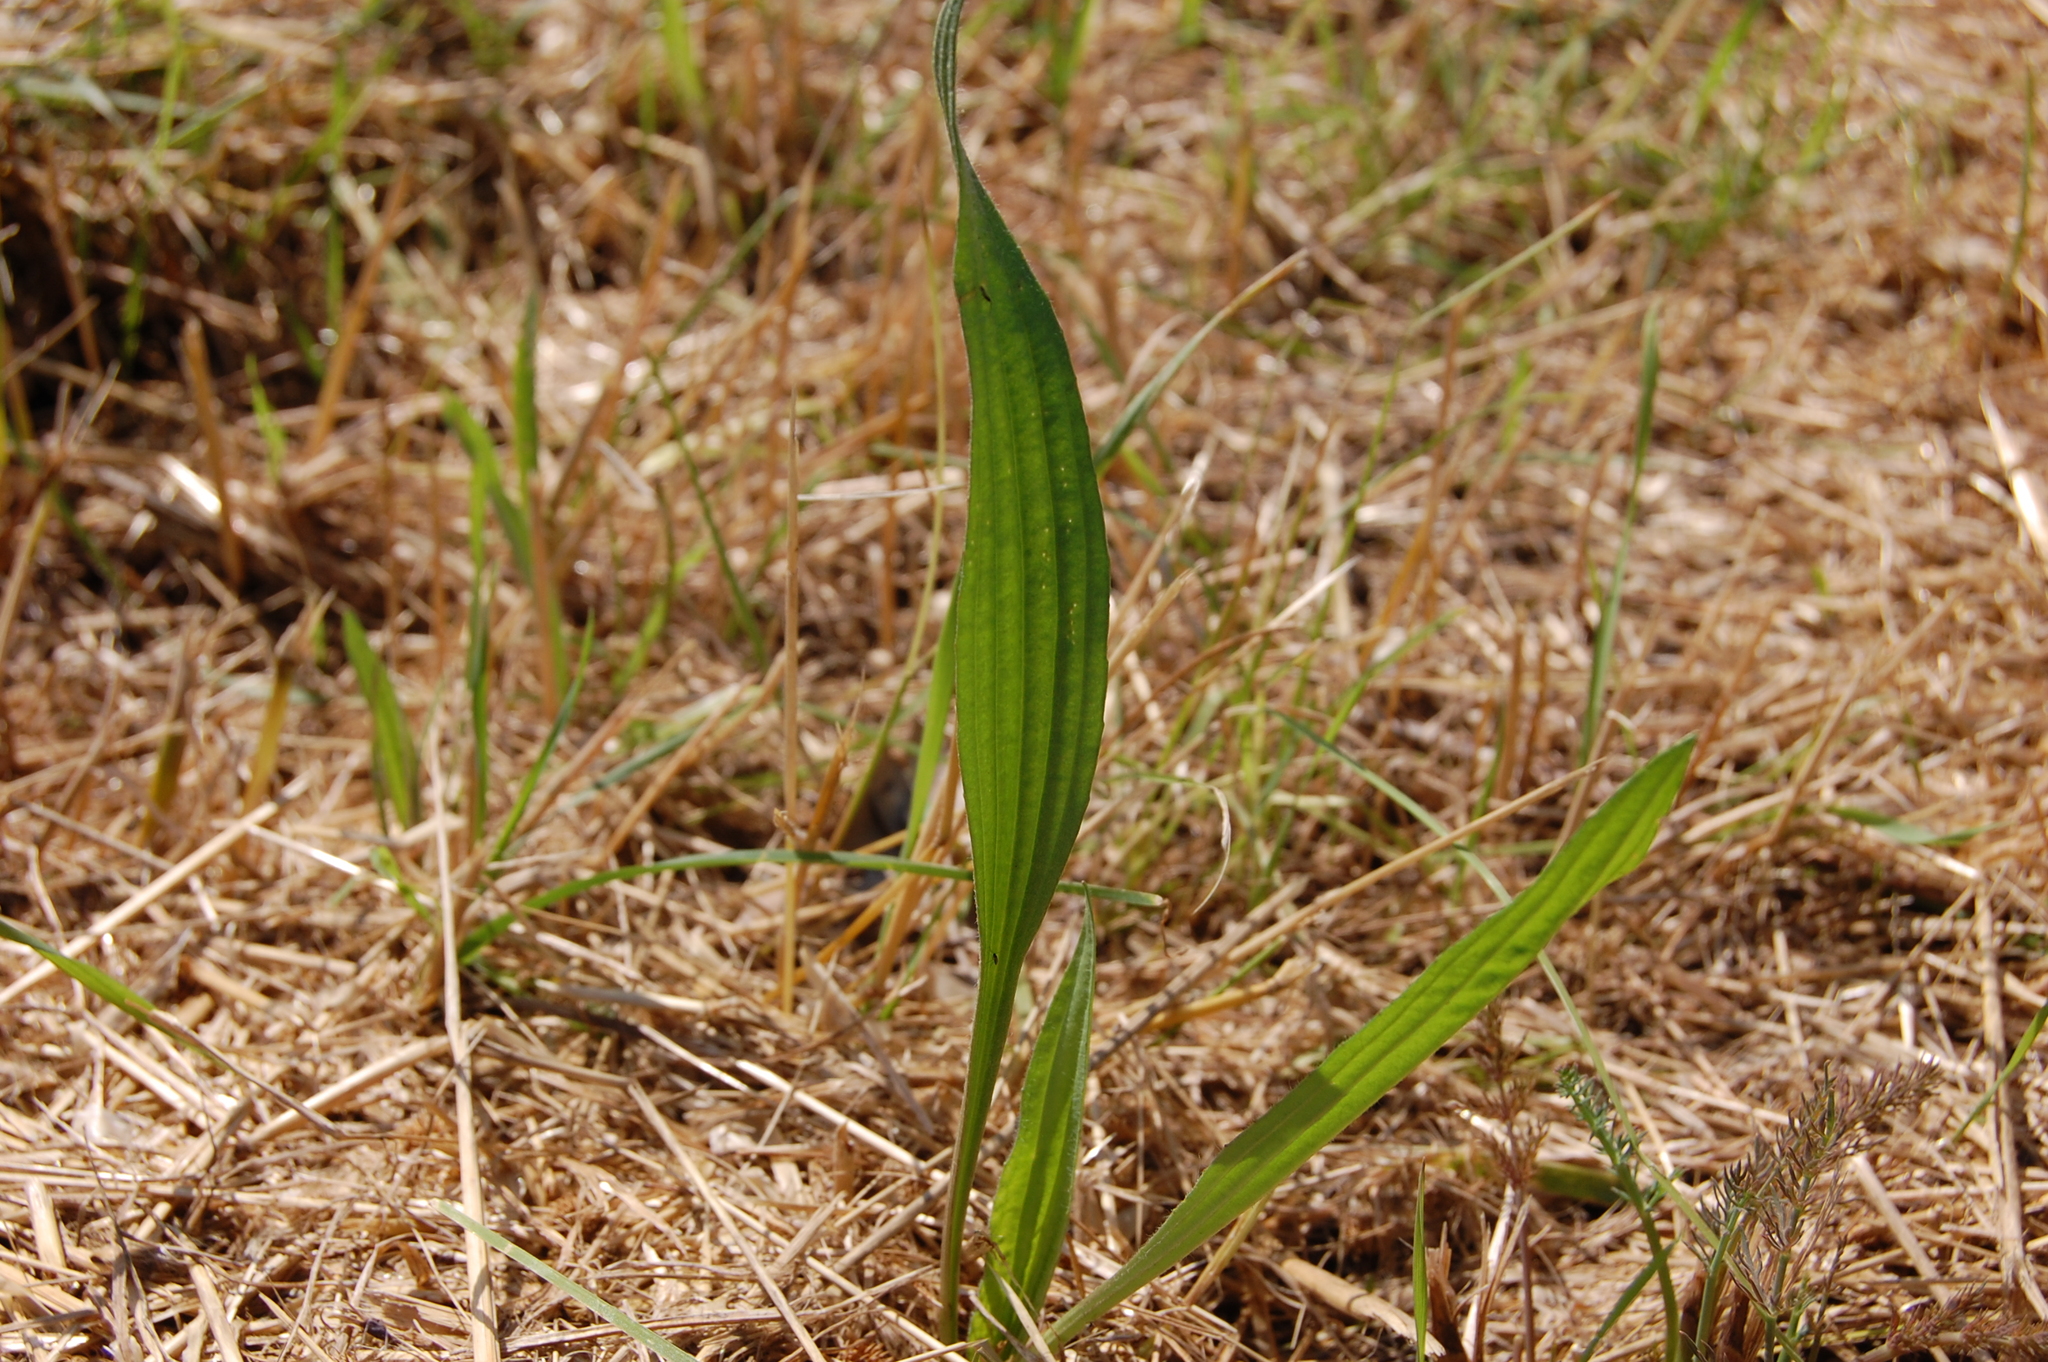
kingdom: Plantae
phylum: Tracheophyta
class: Magnoliopsida
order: Lamiales
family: Plantaginaceae
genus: Plantago
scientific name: Plantago lanceolata
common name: Ribwort plantain
